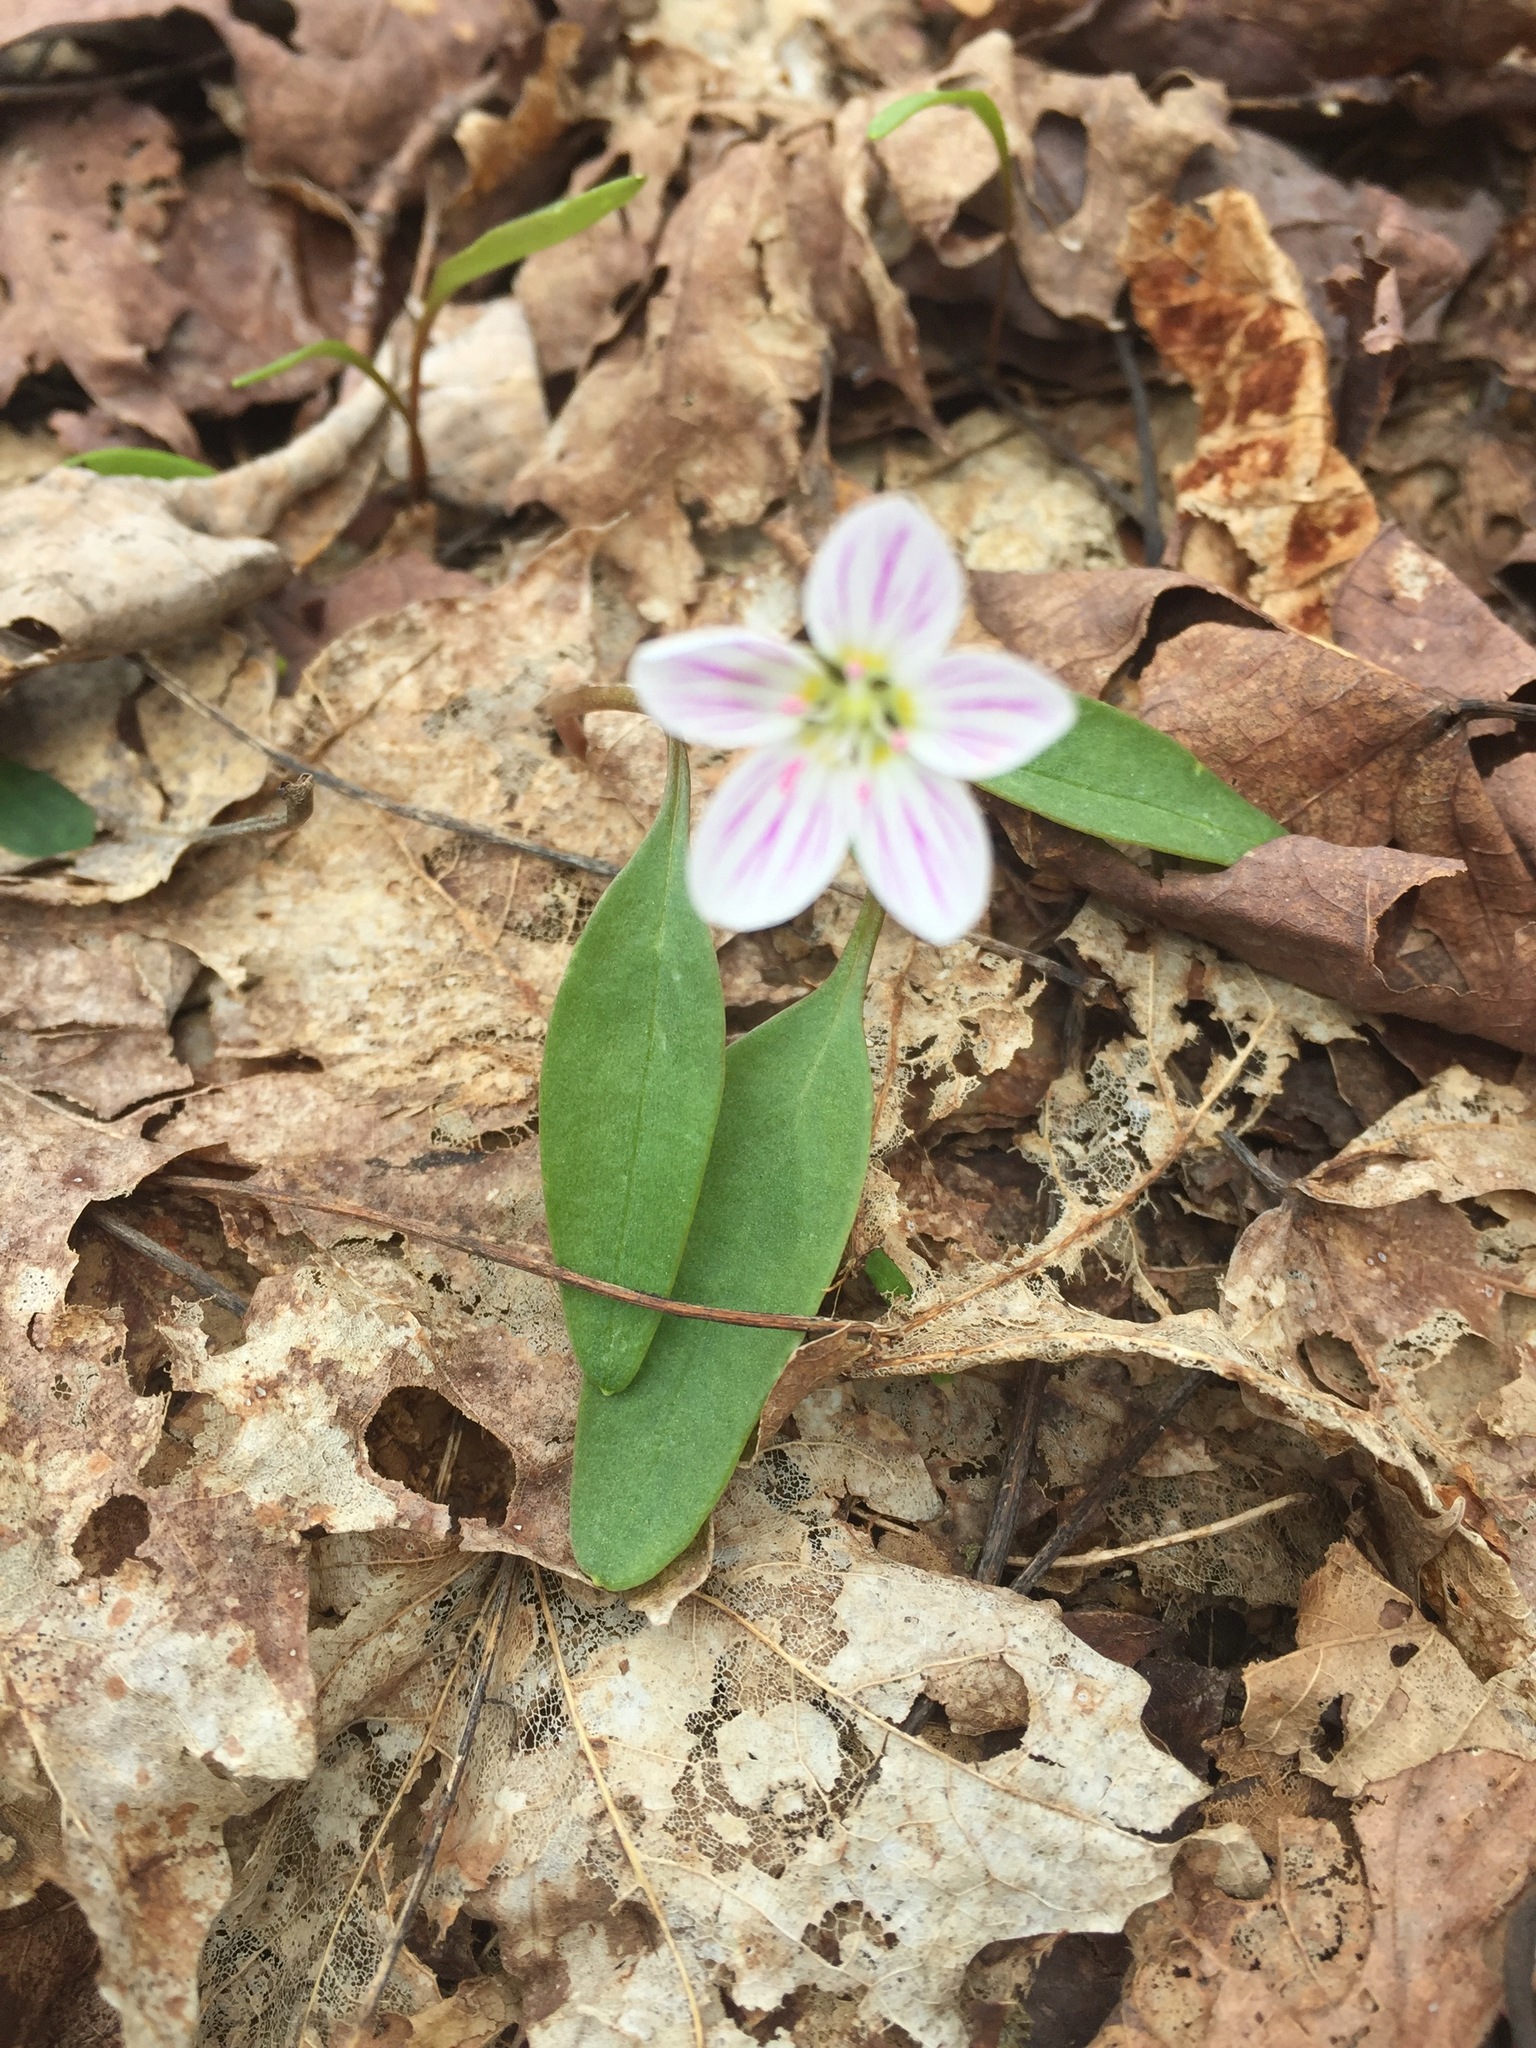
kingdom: Plantae
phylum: Tracheophyta
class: Magnoliopsida
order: Caryophyllales
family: Montiaceae
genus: Claytonia
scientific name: Claytonia caroliniana
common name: Carolina spring beauty
